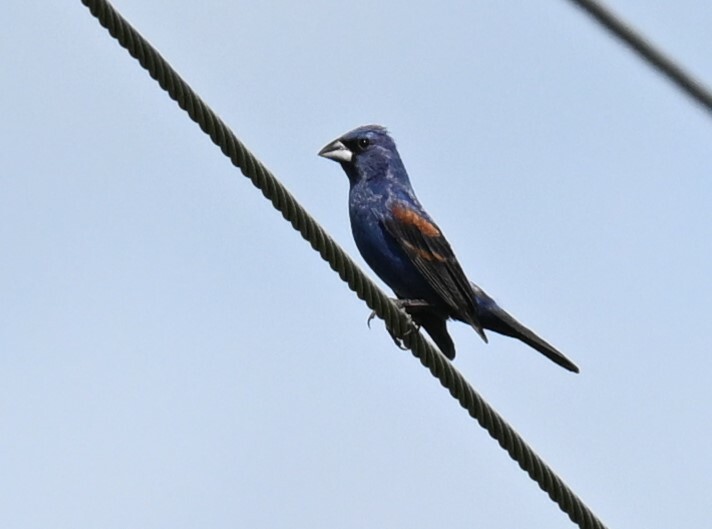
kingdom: Animalia
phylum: Chordata
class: Aves
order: Passeriformes
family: Cardinalidae
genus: Passerina
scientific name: Passerina caerulea
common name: Blue grosbeak
